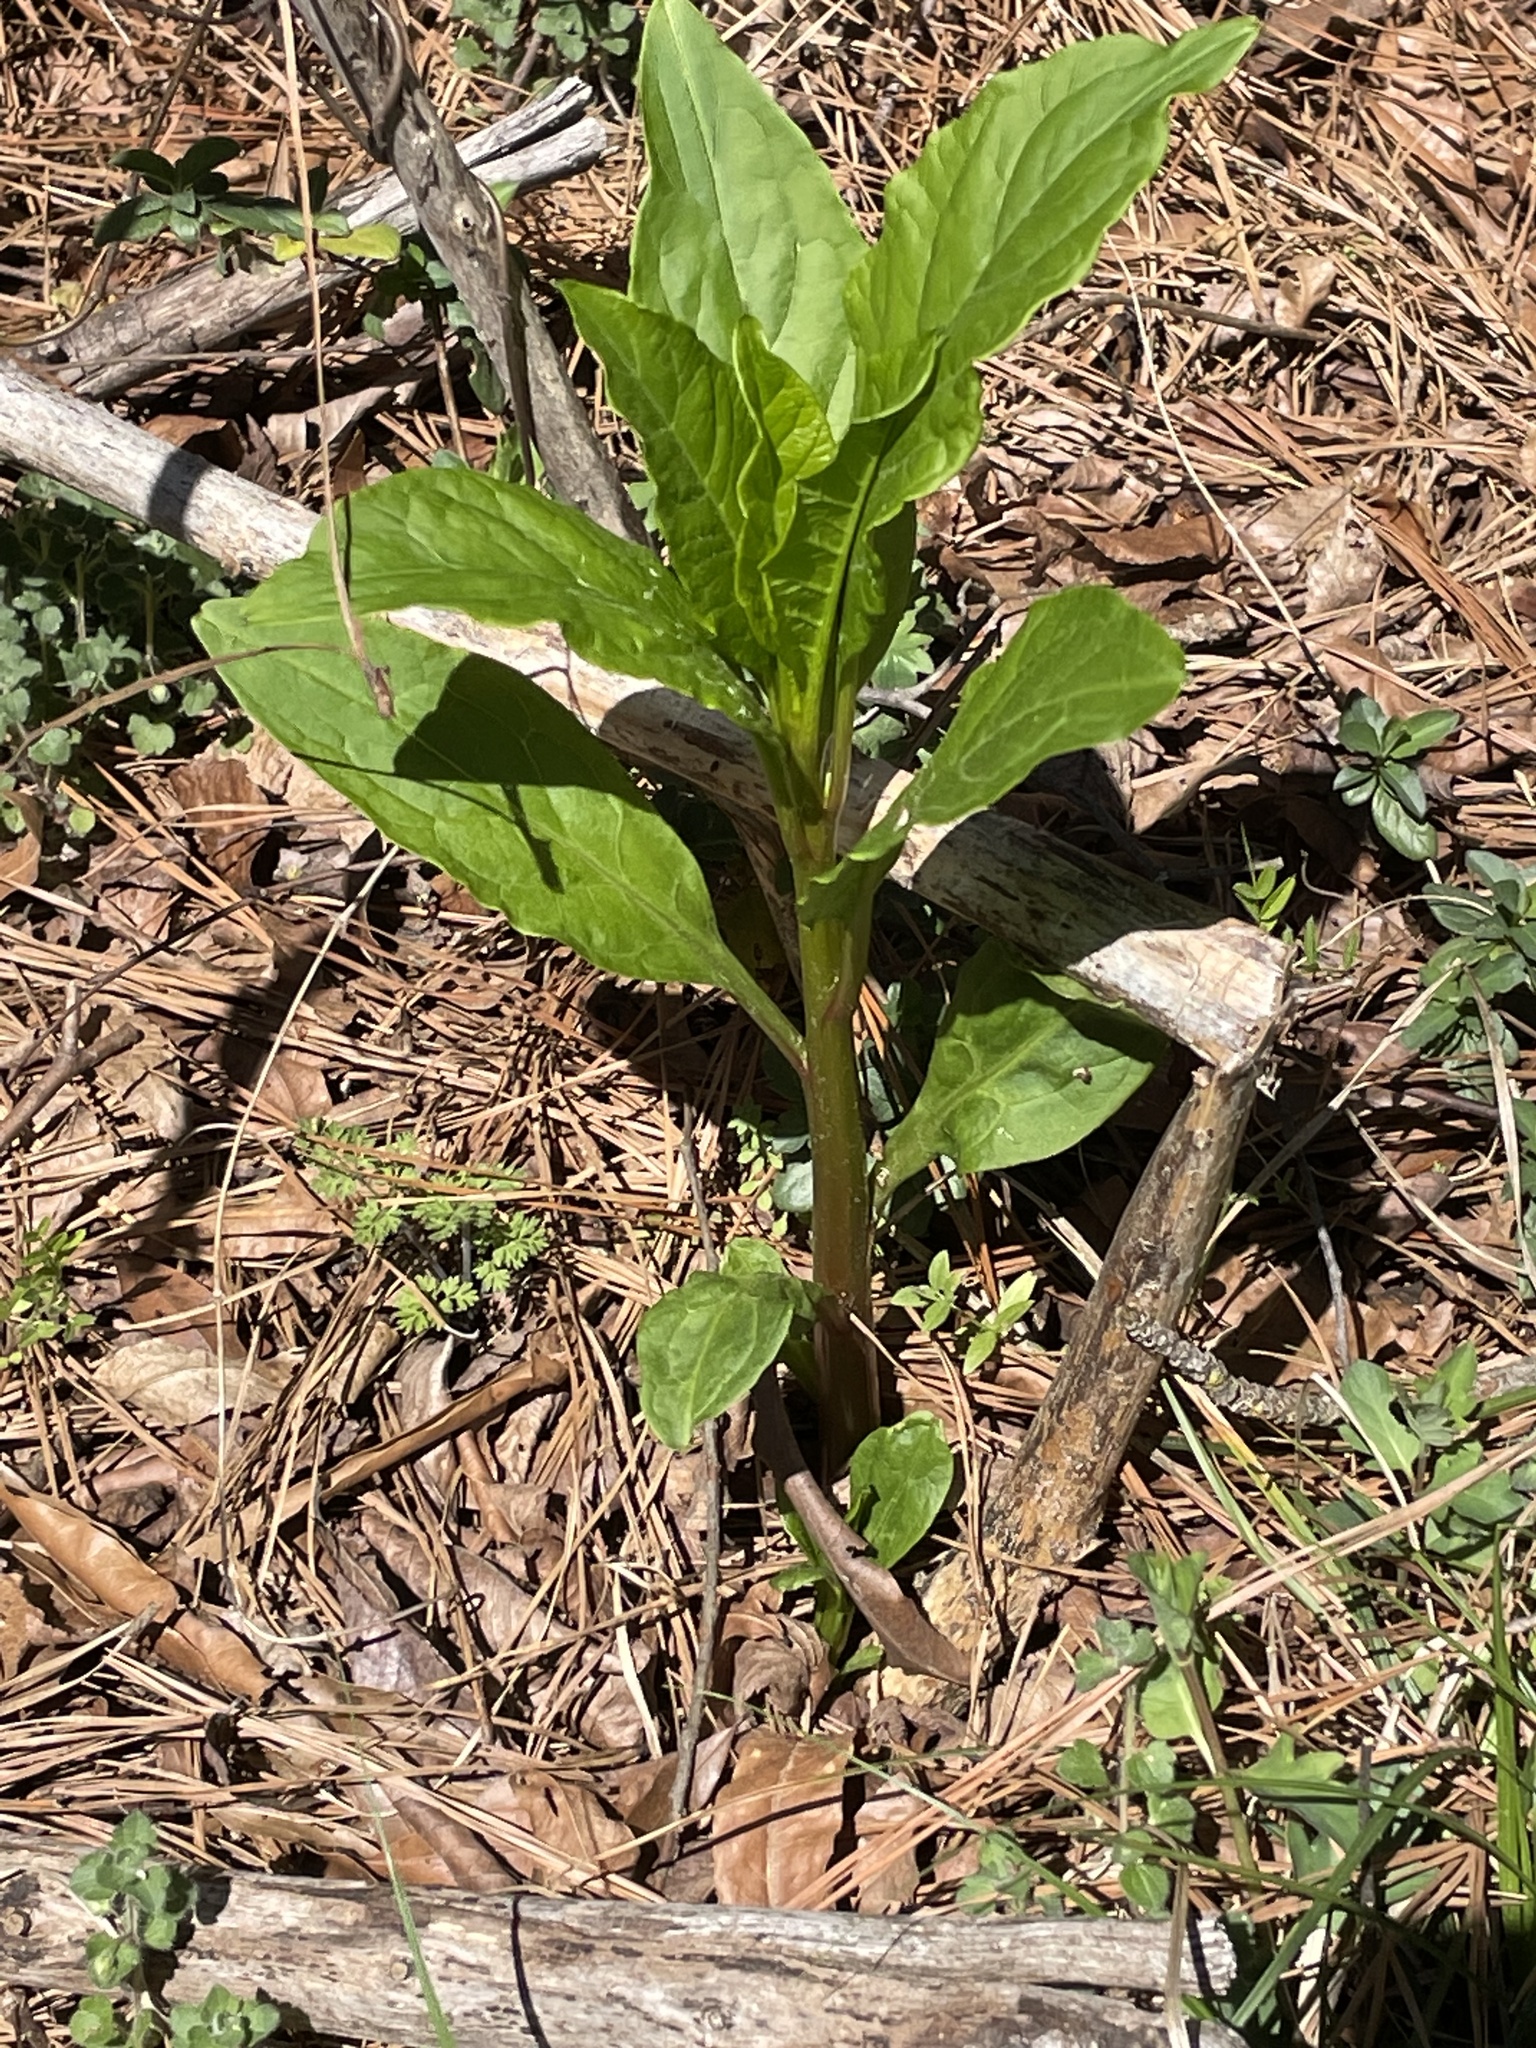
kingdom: Plantae
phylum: Tracheophyta
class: Magnoliopsida
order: Caryophyllales
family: Phytolaccaceae
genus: Phytolacca
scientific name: Phytolacca americana
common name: American pokeweed
